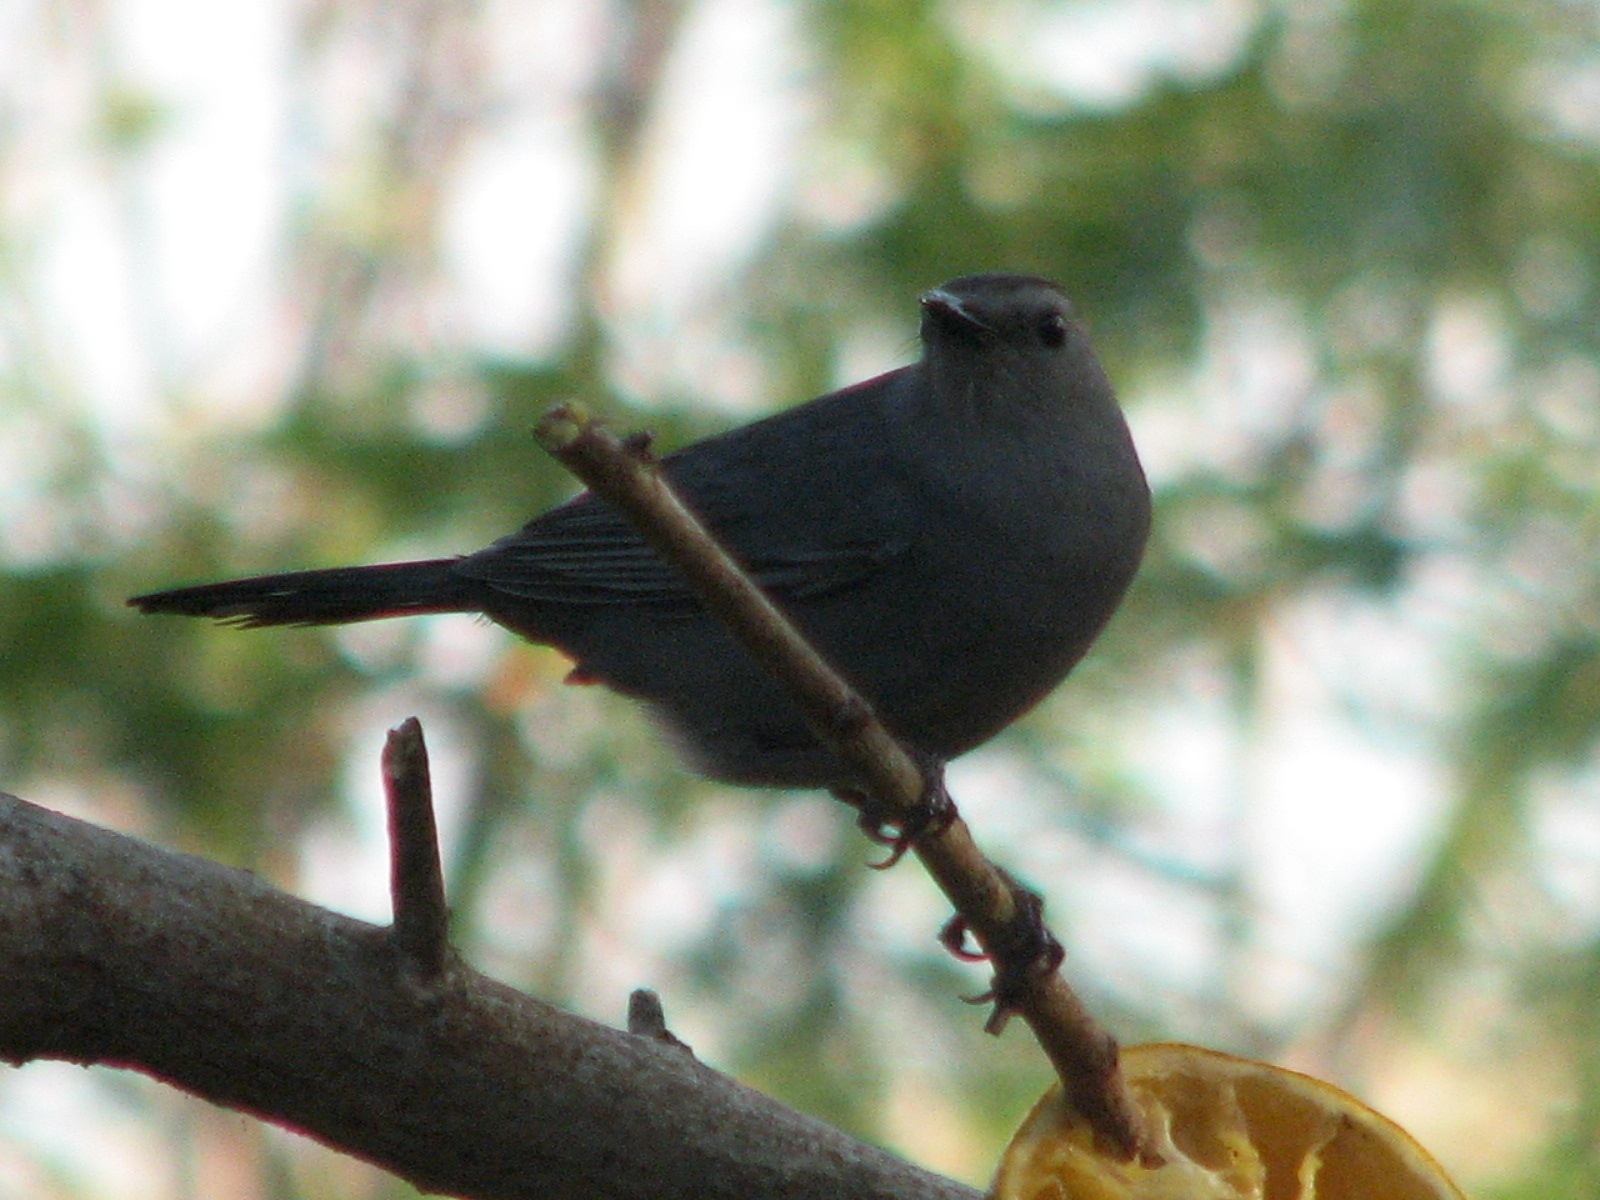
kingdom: Animalia
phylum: Chordata
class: Aves
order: Passeriformes
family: Mimidae
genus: Dumetella
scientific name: Dumetella carolinensis
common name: Gray catbird
